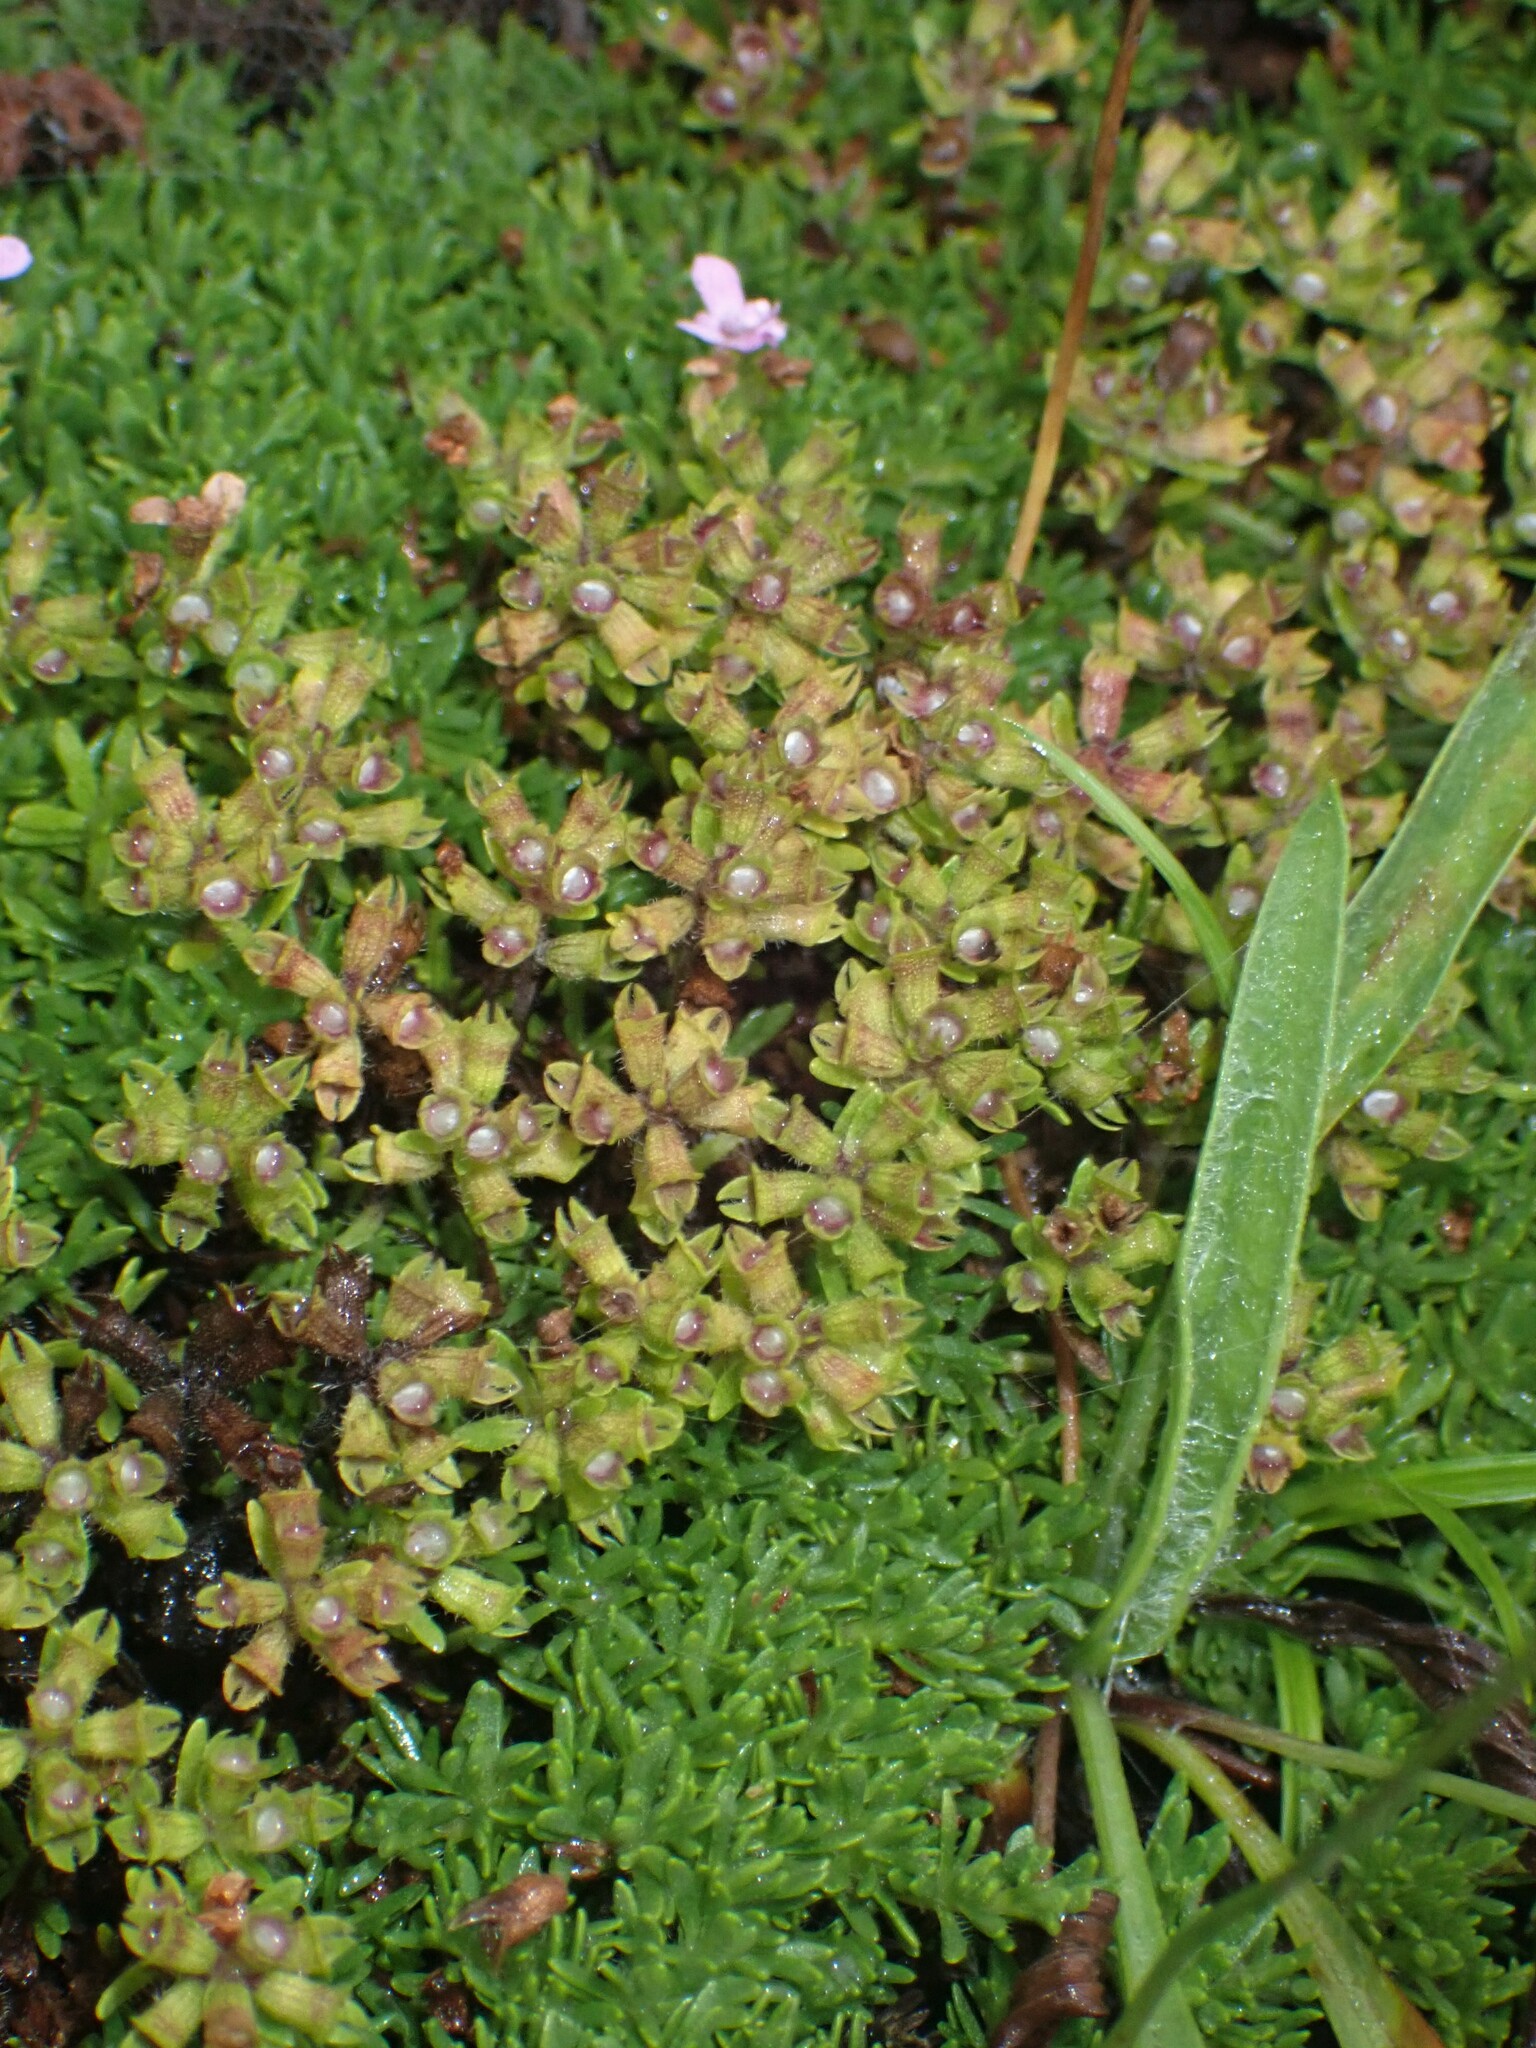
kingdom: Plantae
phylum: Tracheophyta
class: Magnoliopsida
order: Lamiales
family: Plantaginaceae
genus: Plantago
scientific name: Plantago lanceolata
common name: Ribwort plantain
